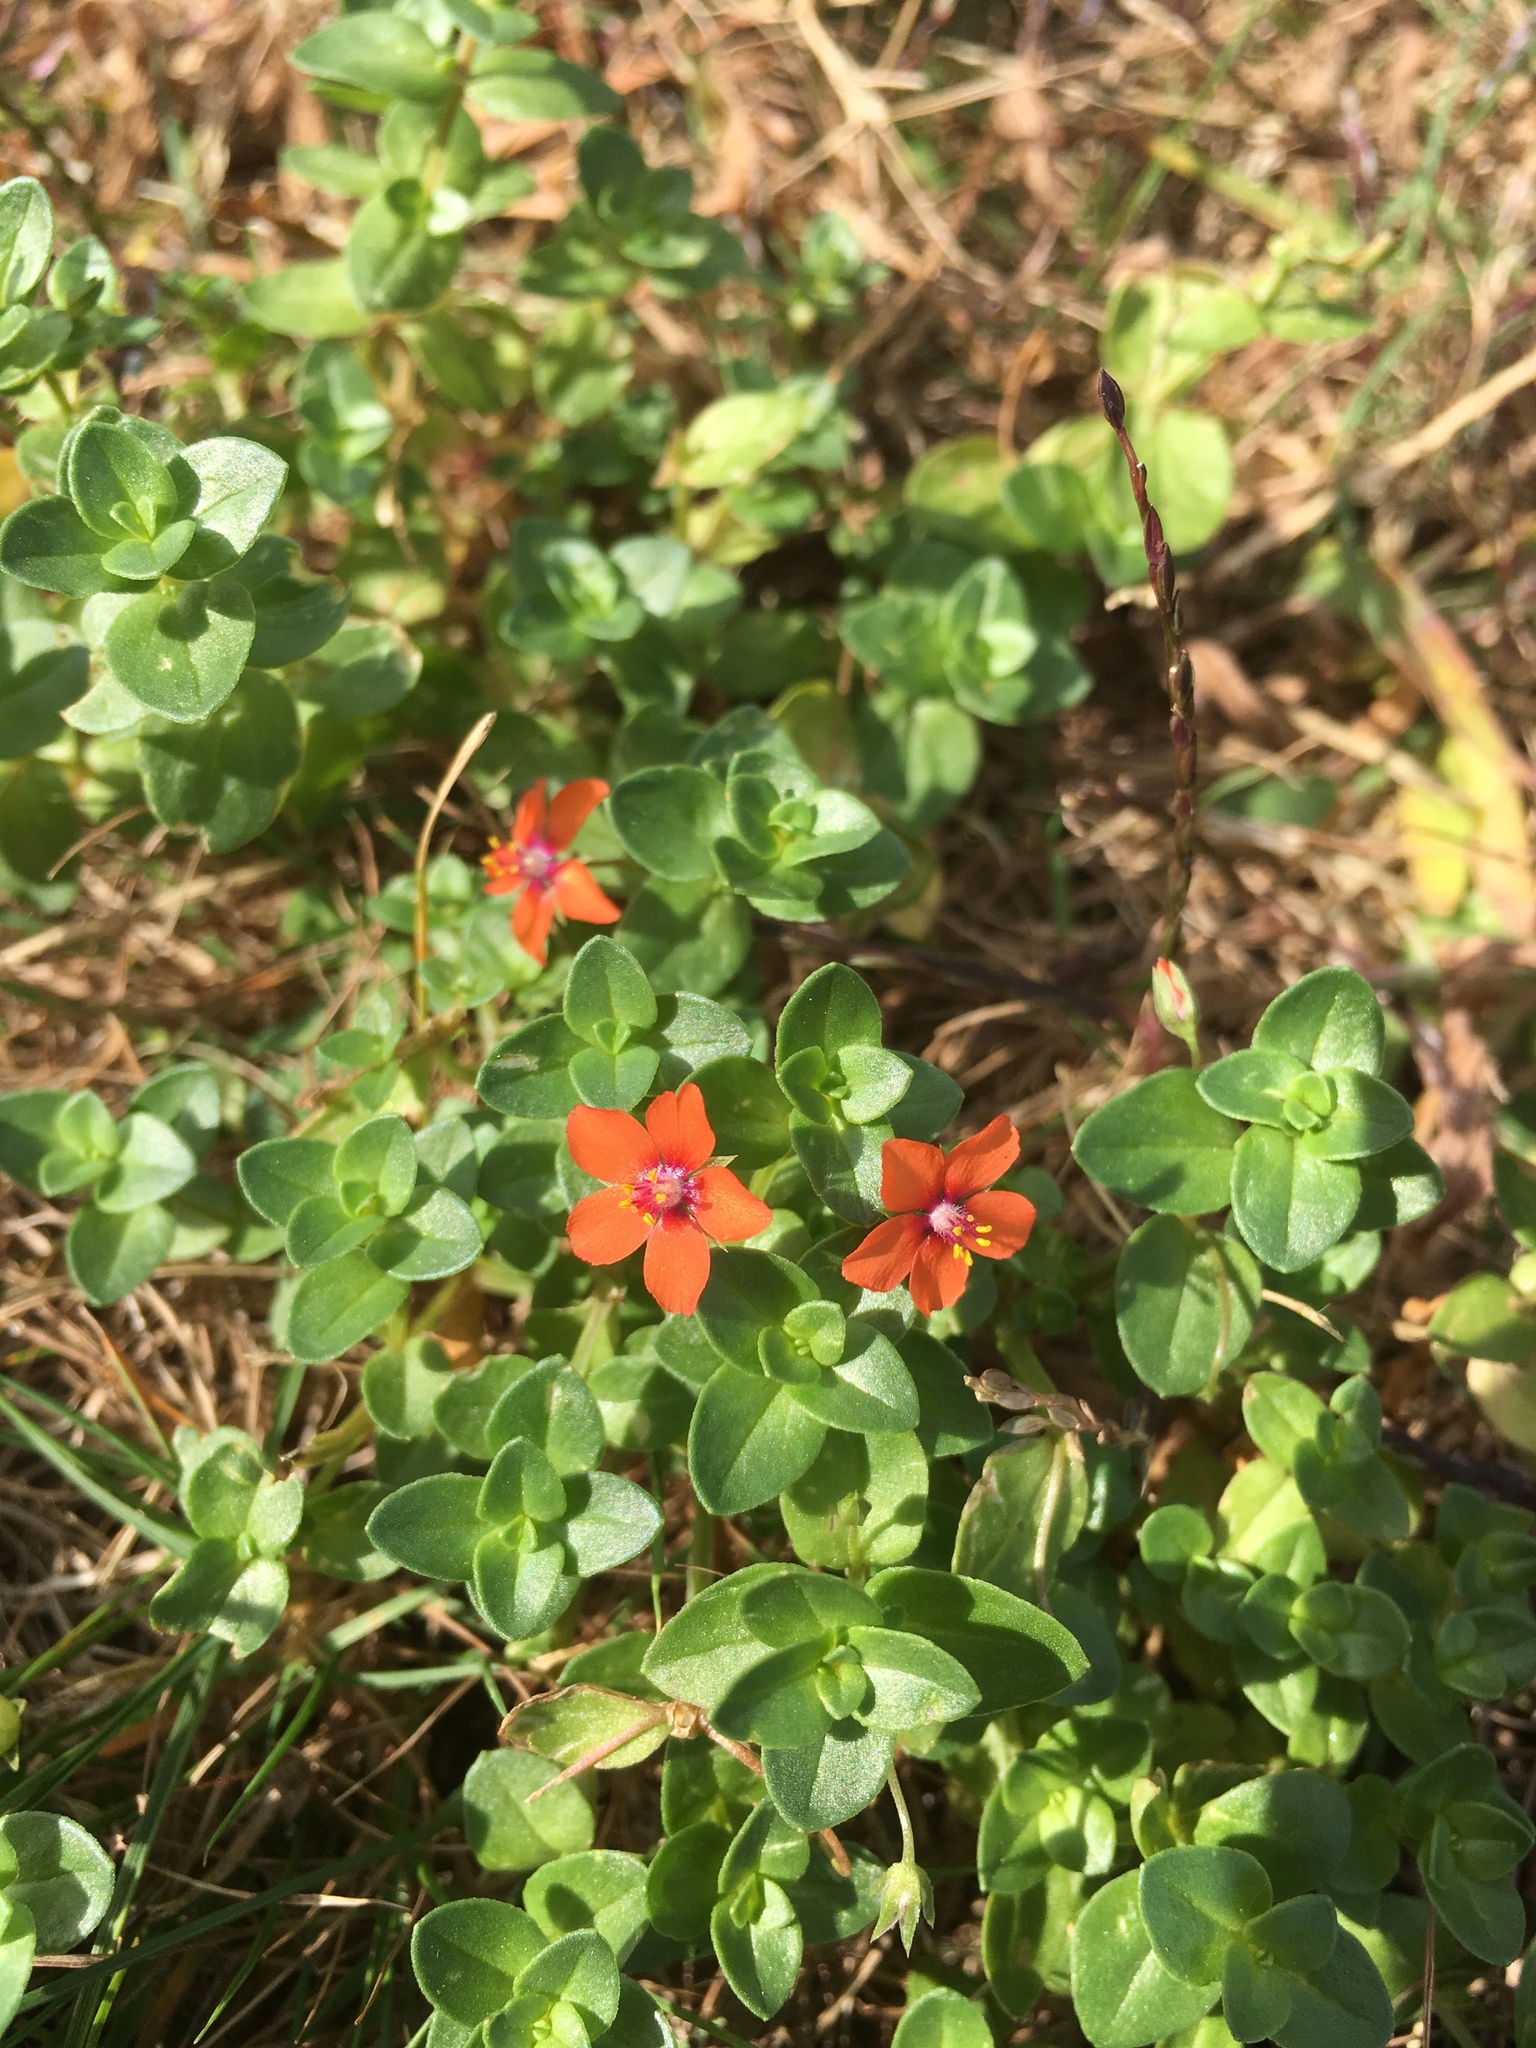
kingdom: Plantae
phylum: Tracheophyta
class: Magnoliopsida
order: Ericales
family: Primulaceae
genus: Lysimachia
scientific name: Lysimachia arvensis
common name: Scarlet pimpernel
